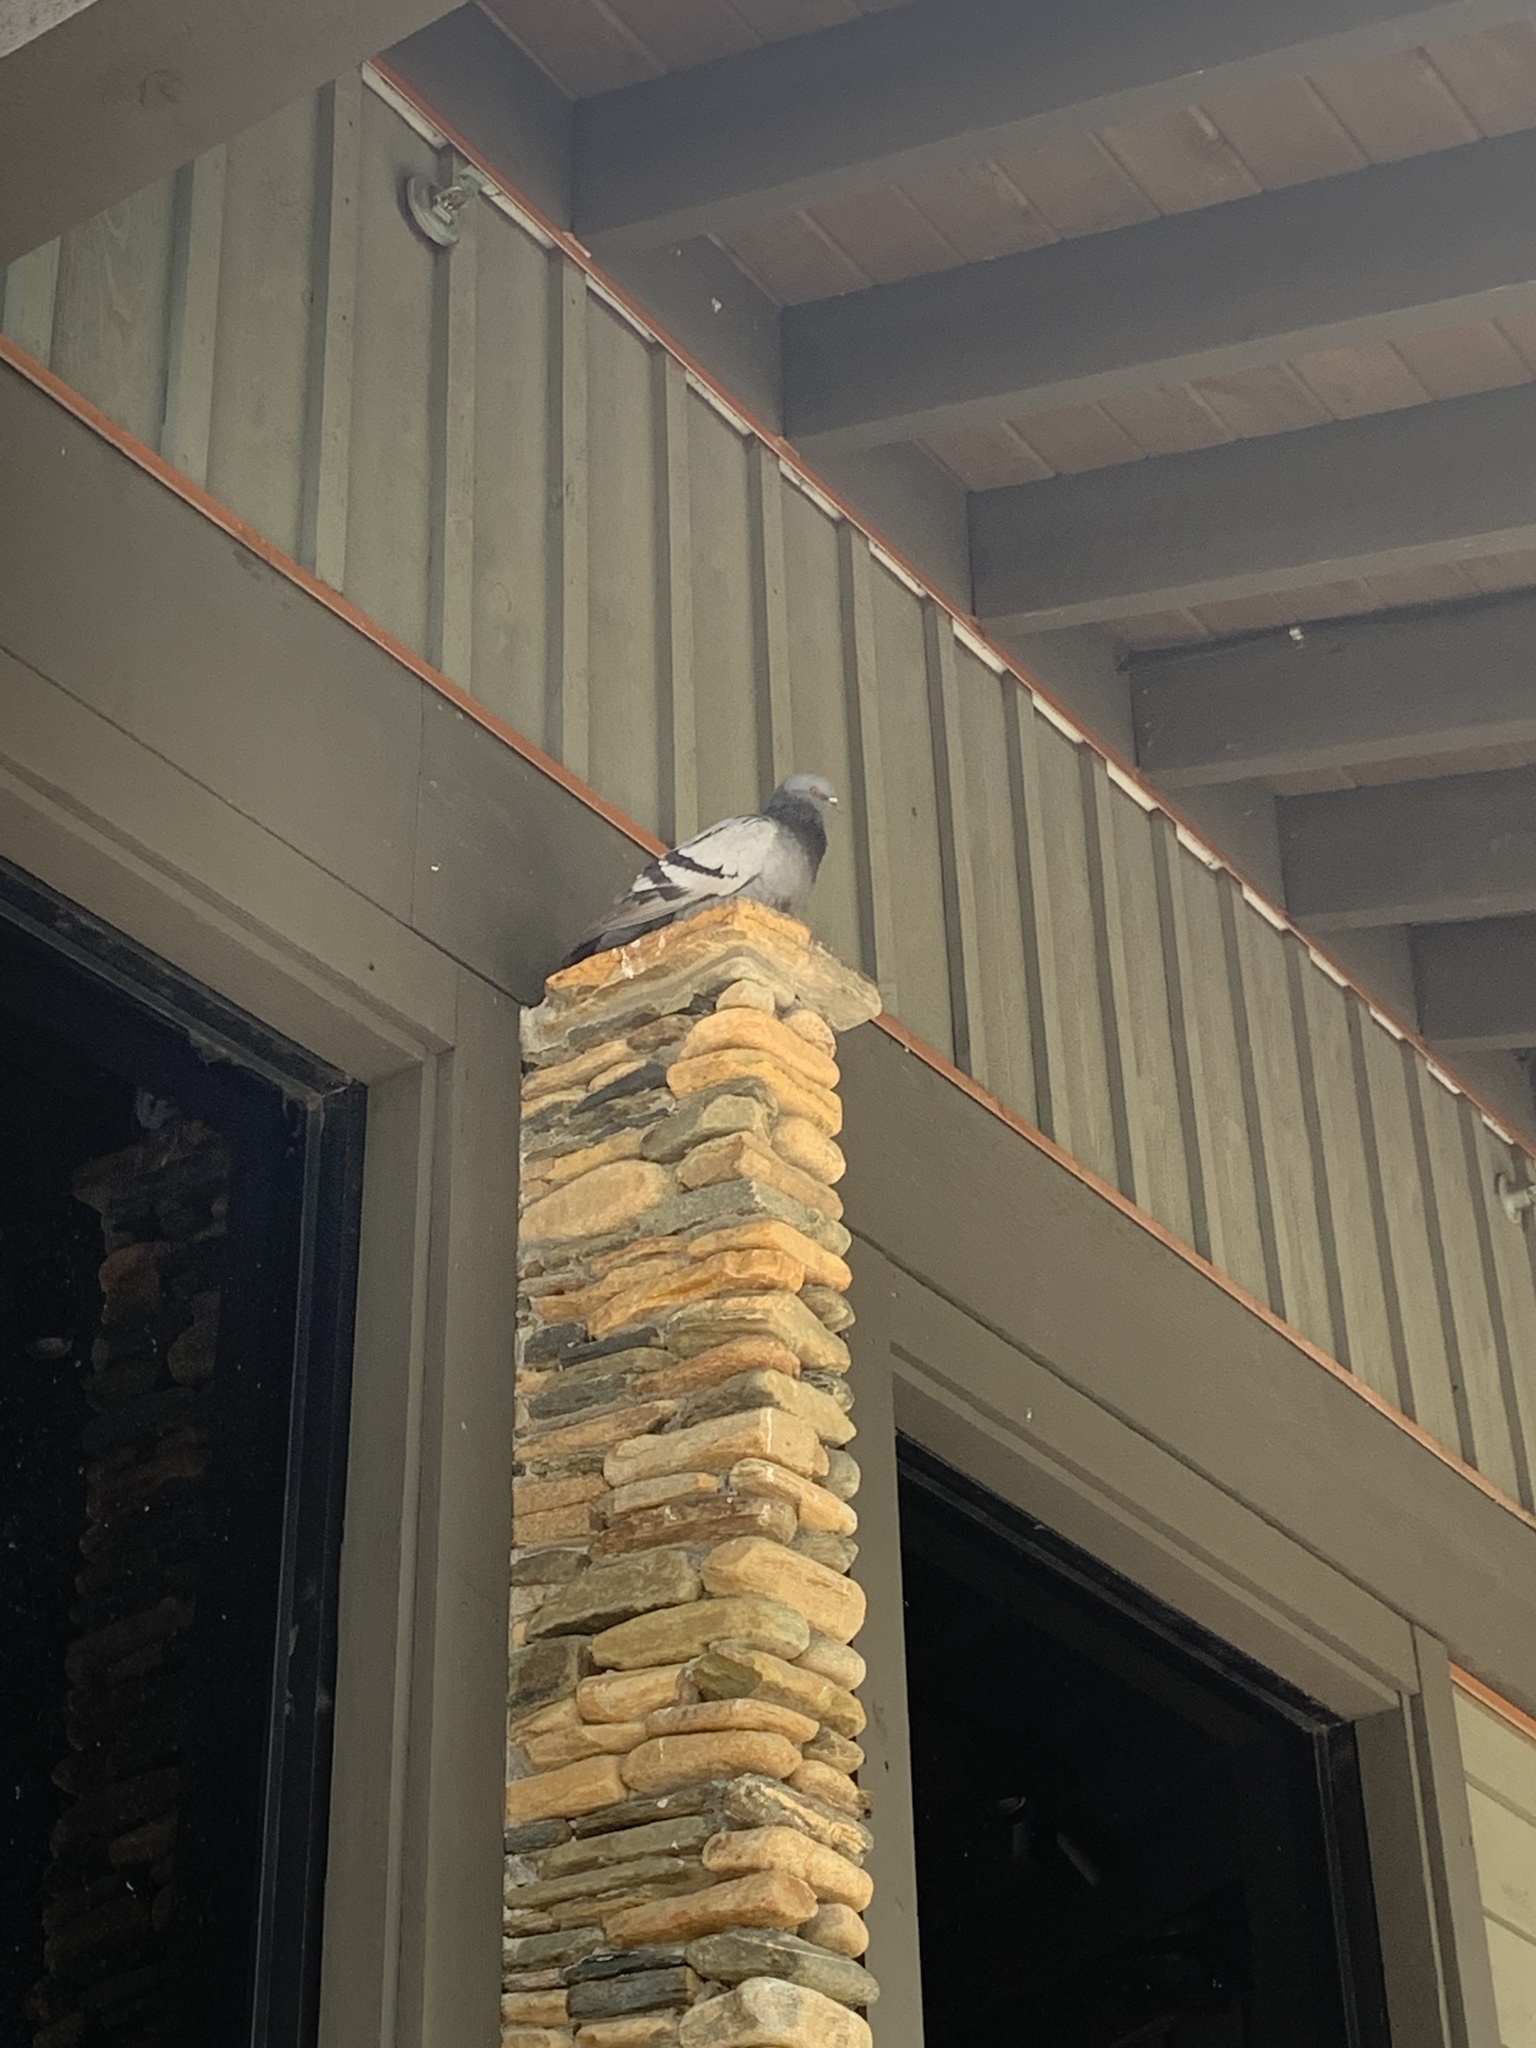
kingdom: Animalia
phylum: Chordata
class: Aves
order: Columbiformes
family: Columbidae
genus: Columba
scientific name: Columba livia
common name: Rock pigeon
